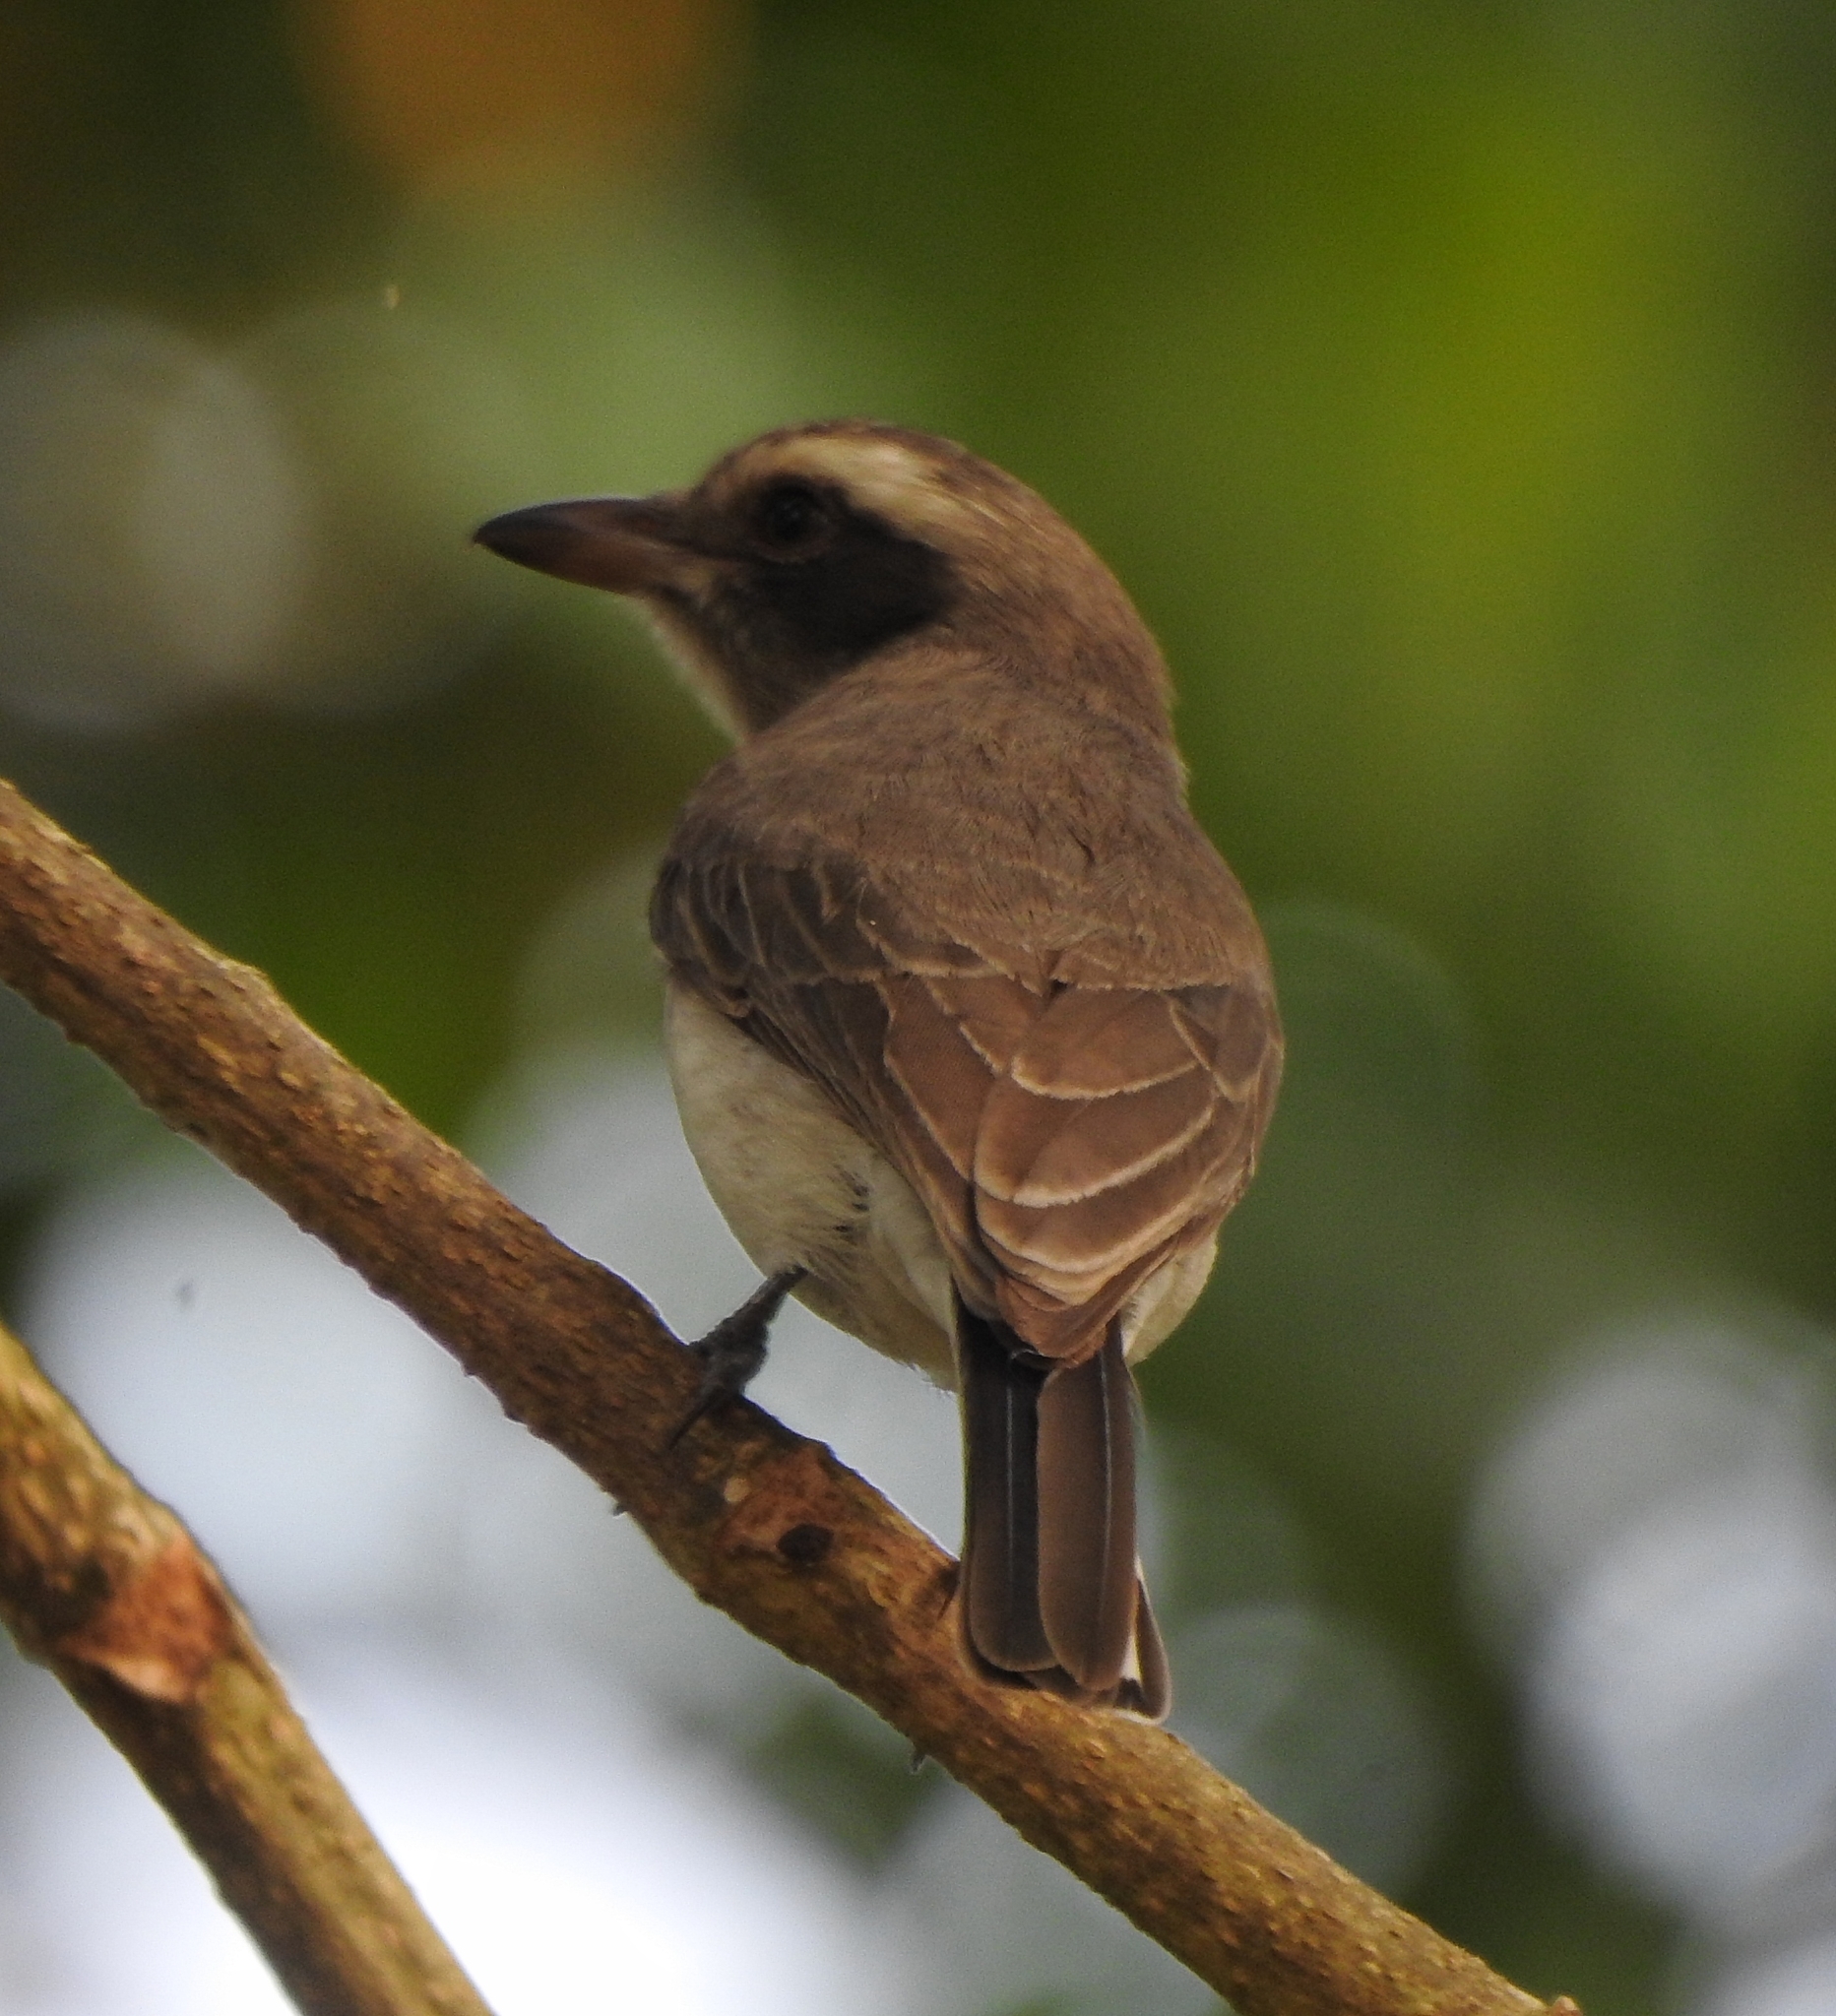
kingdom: Animalia
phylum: Chordata
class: Aves
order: Passeriformes
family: Tephrodornithidae
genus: Tephrodornis
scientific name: Tephrodornis pondicerianus
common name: Common woodshrike
